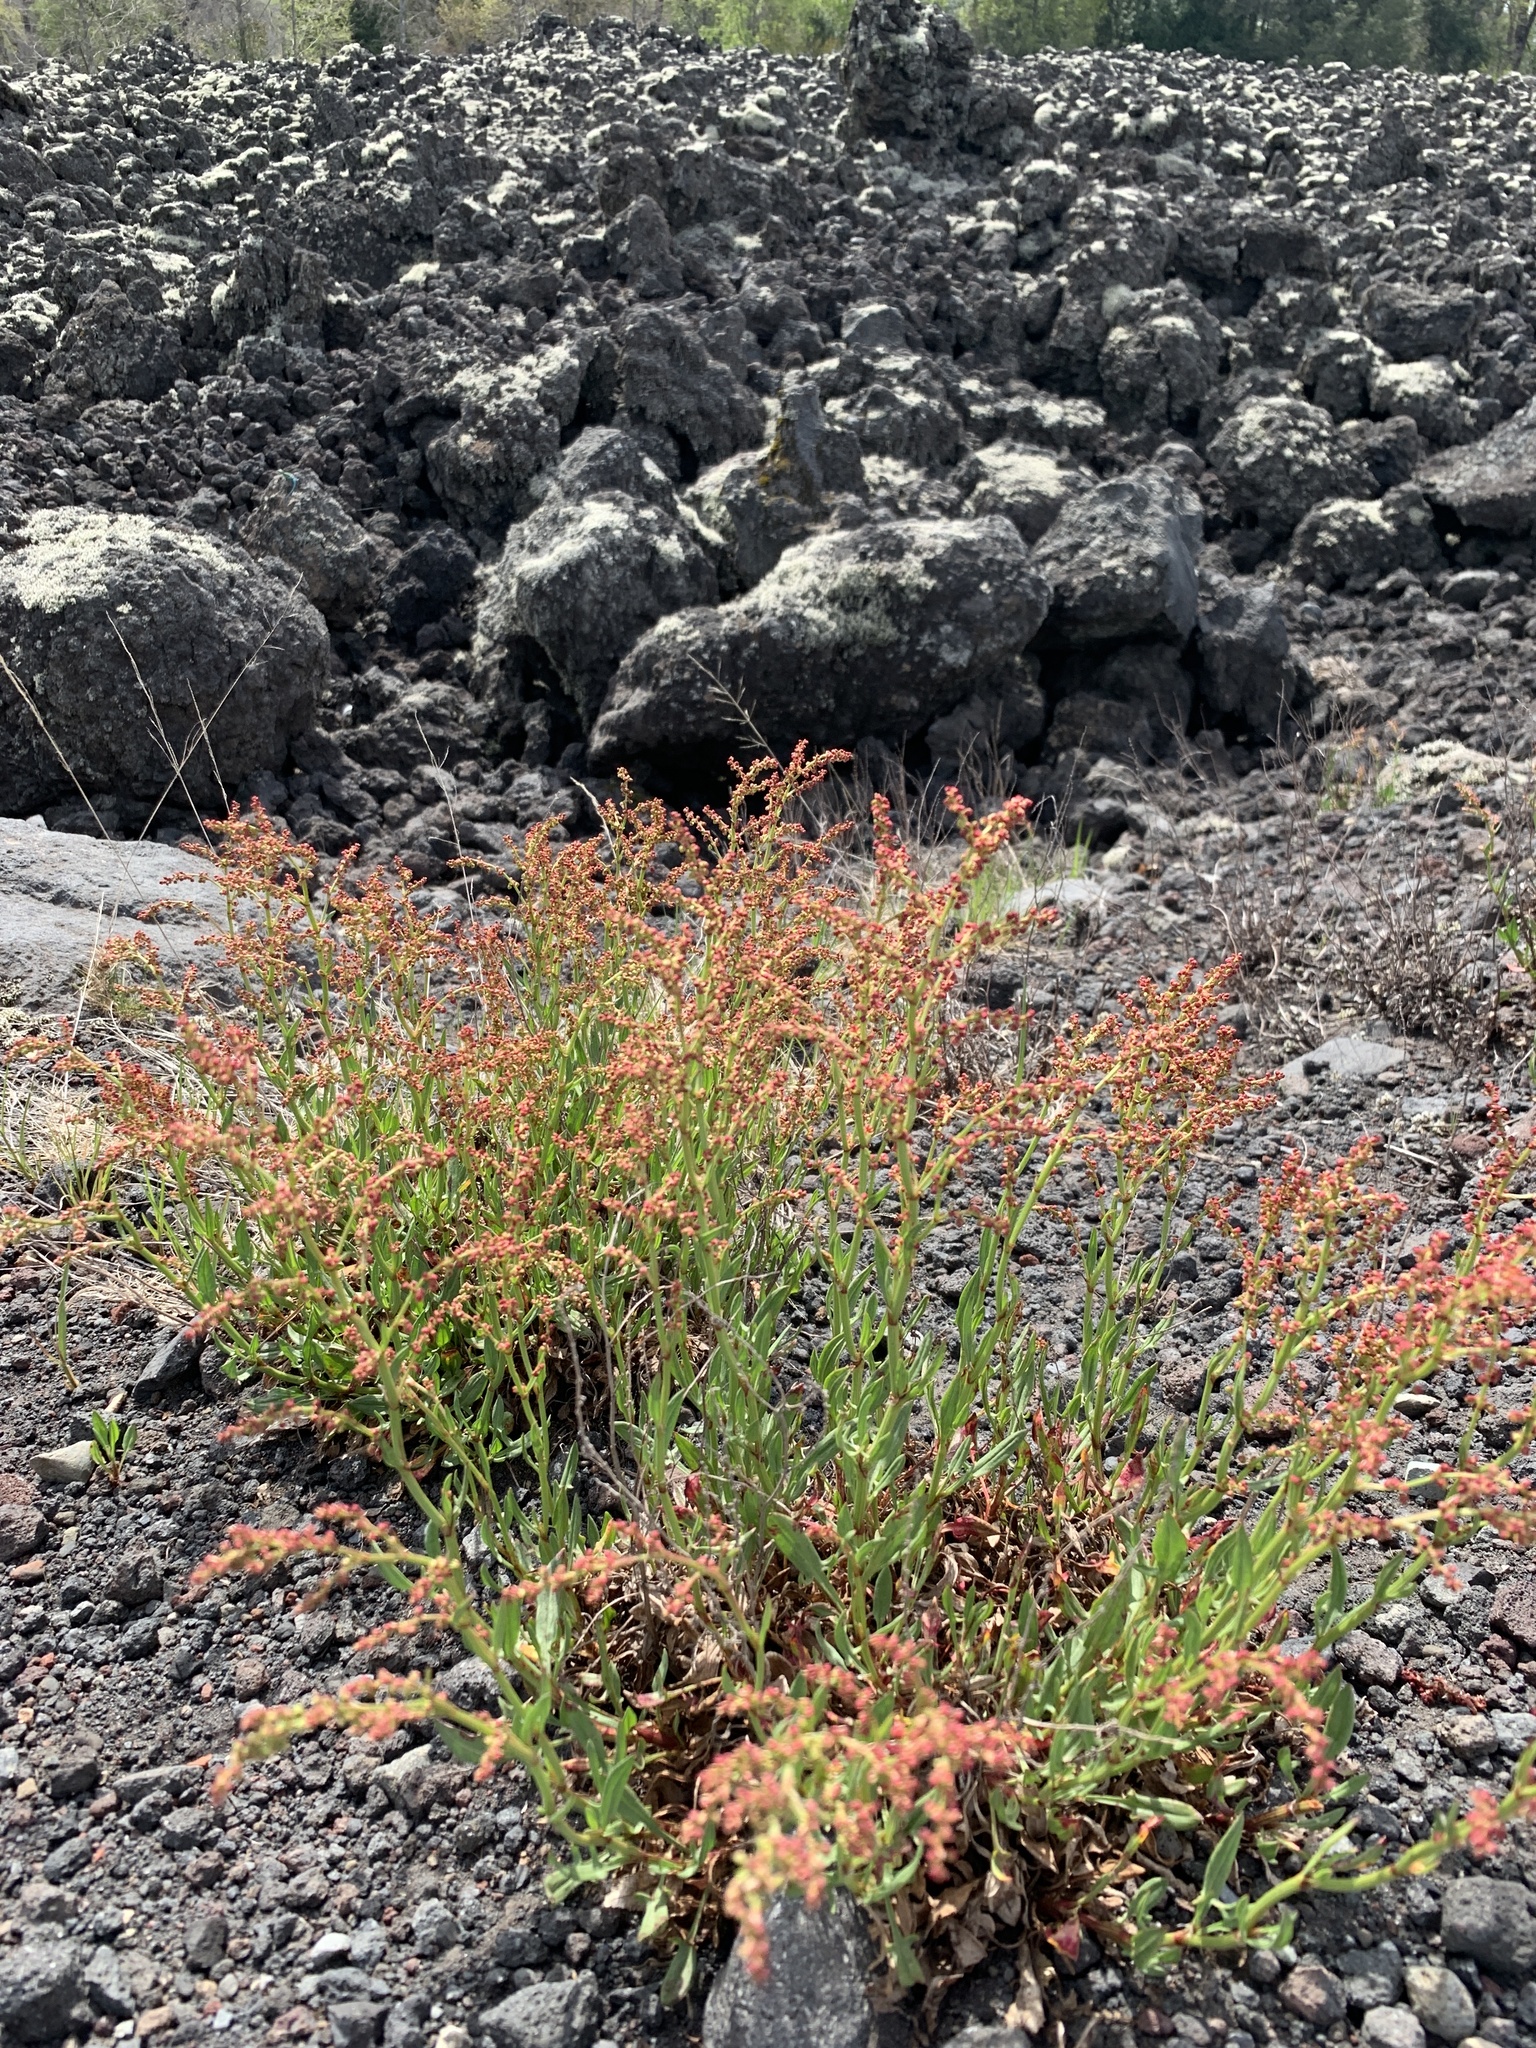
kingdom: Plantae
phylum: Tracheophyta
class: Magnoliopsida
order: Caryophyllales
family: Polygonaceae
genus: Rumex
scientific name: Rumex acetosella
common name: Common sheep sorrel
